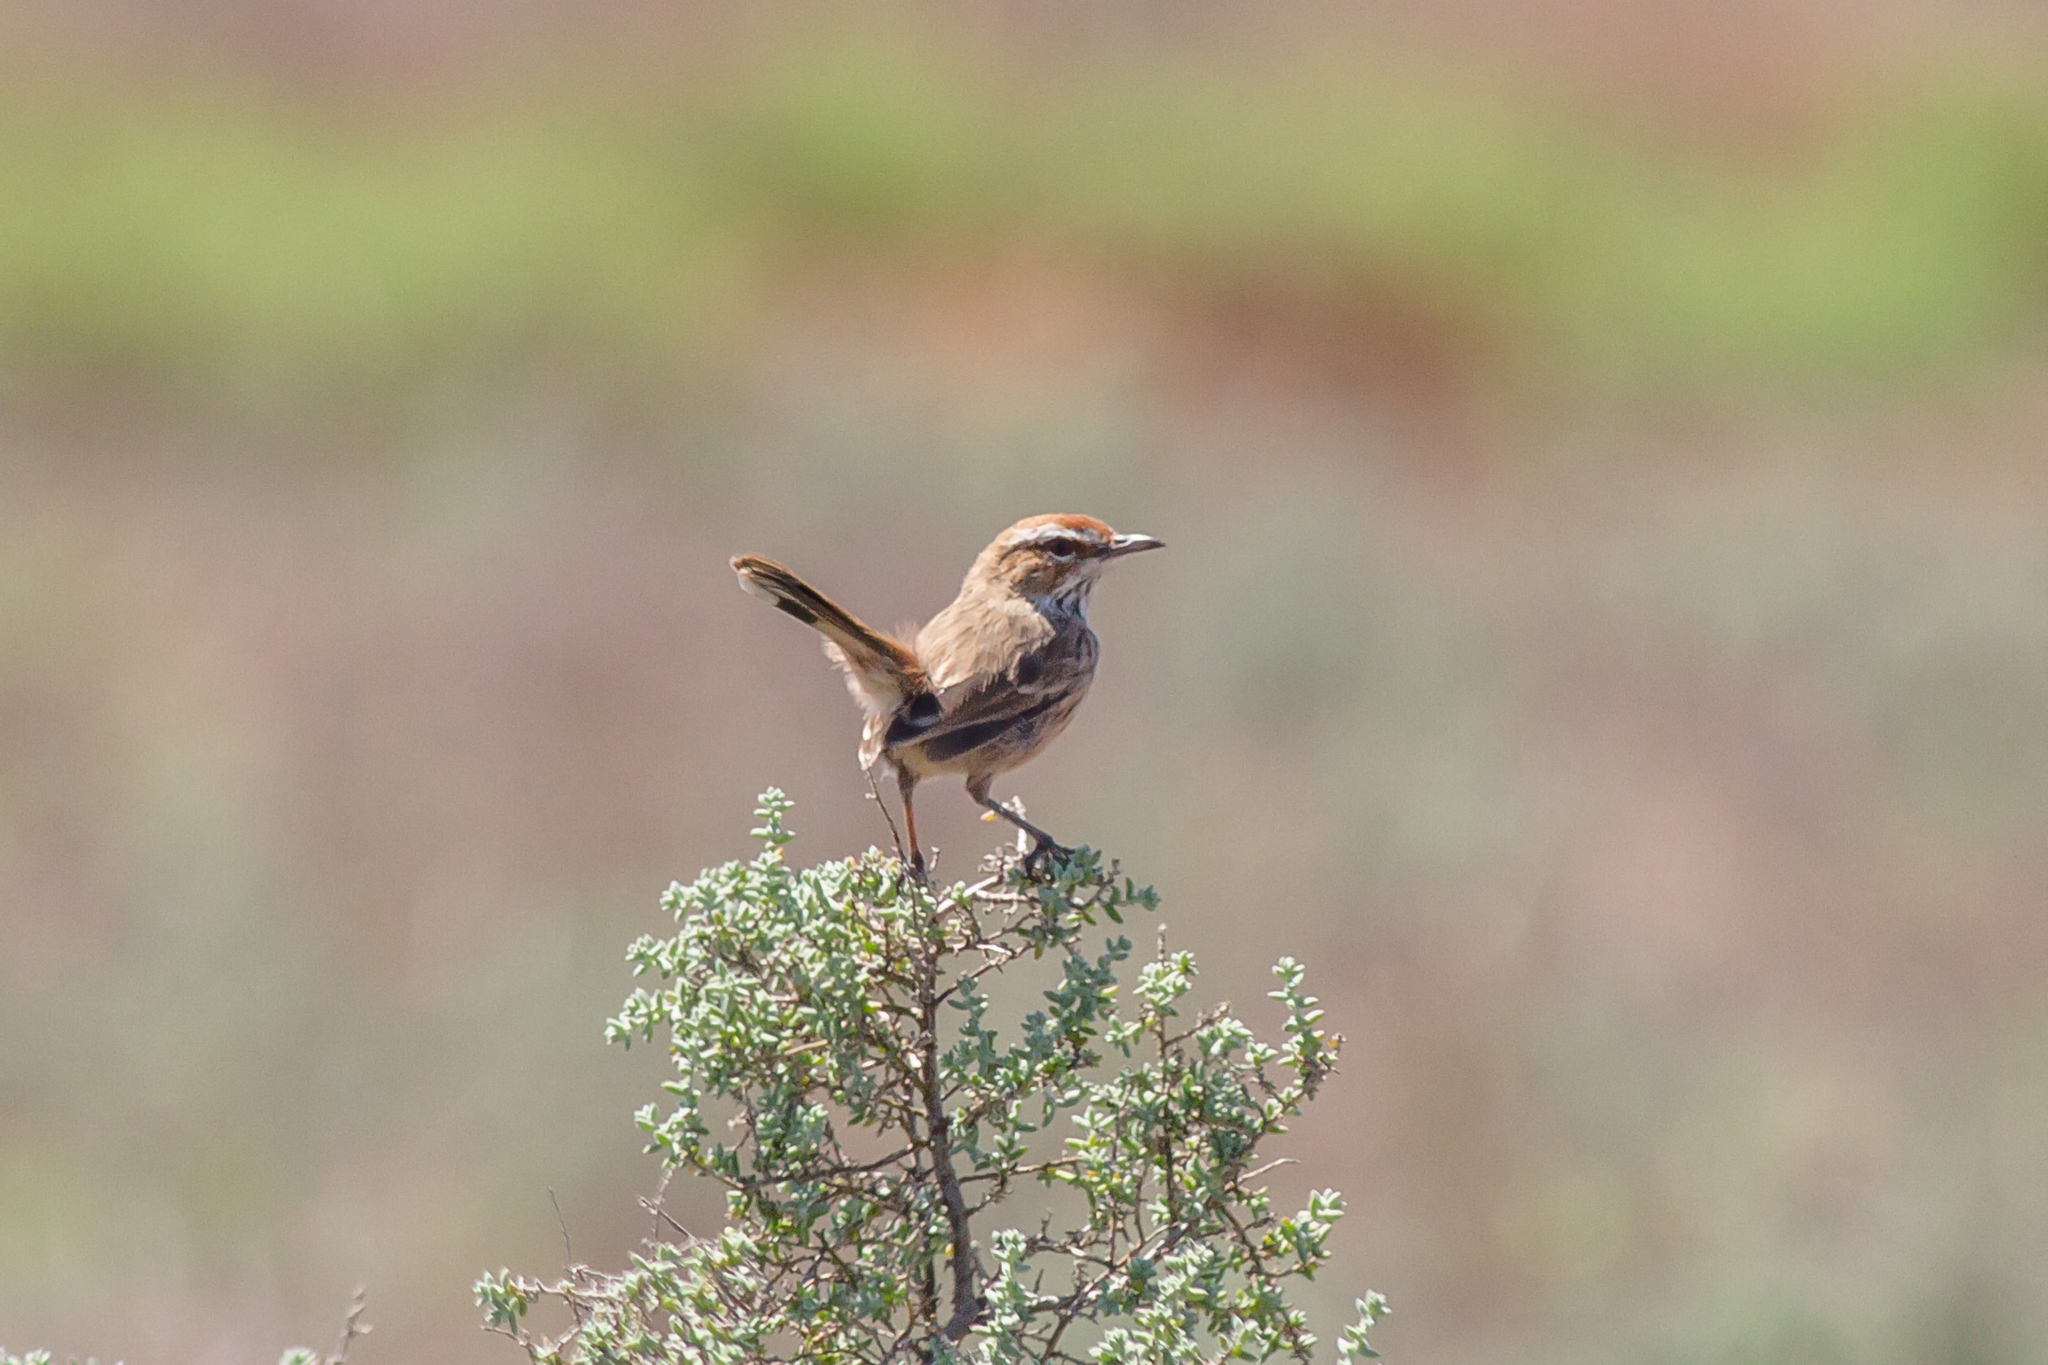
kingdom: Animalia
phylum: Chordata
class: Aves
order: Passeriformes
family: Acanthizidae
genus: Calamanthus
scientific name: Calamanthus campestris
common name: Rufous fieldwren
